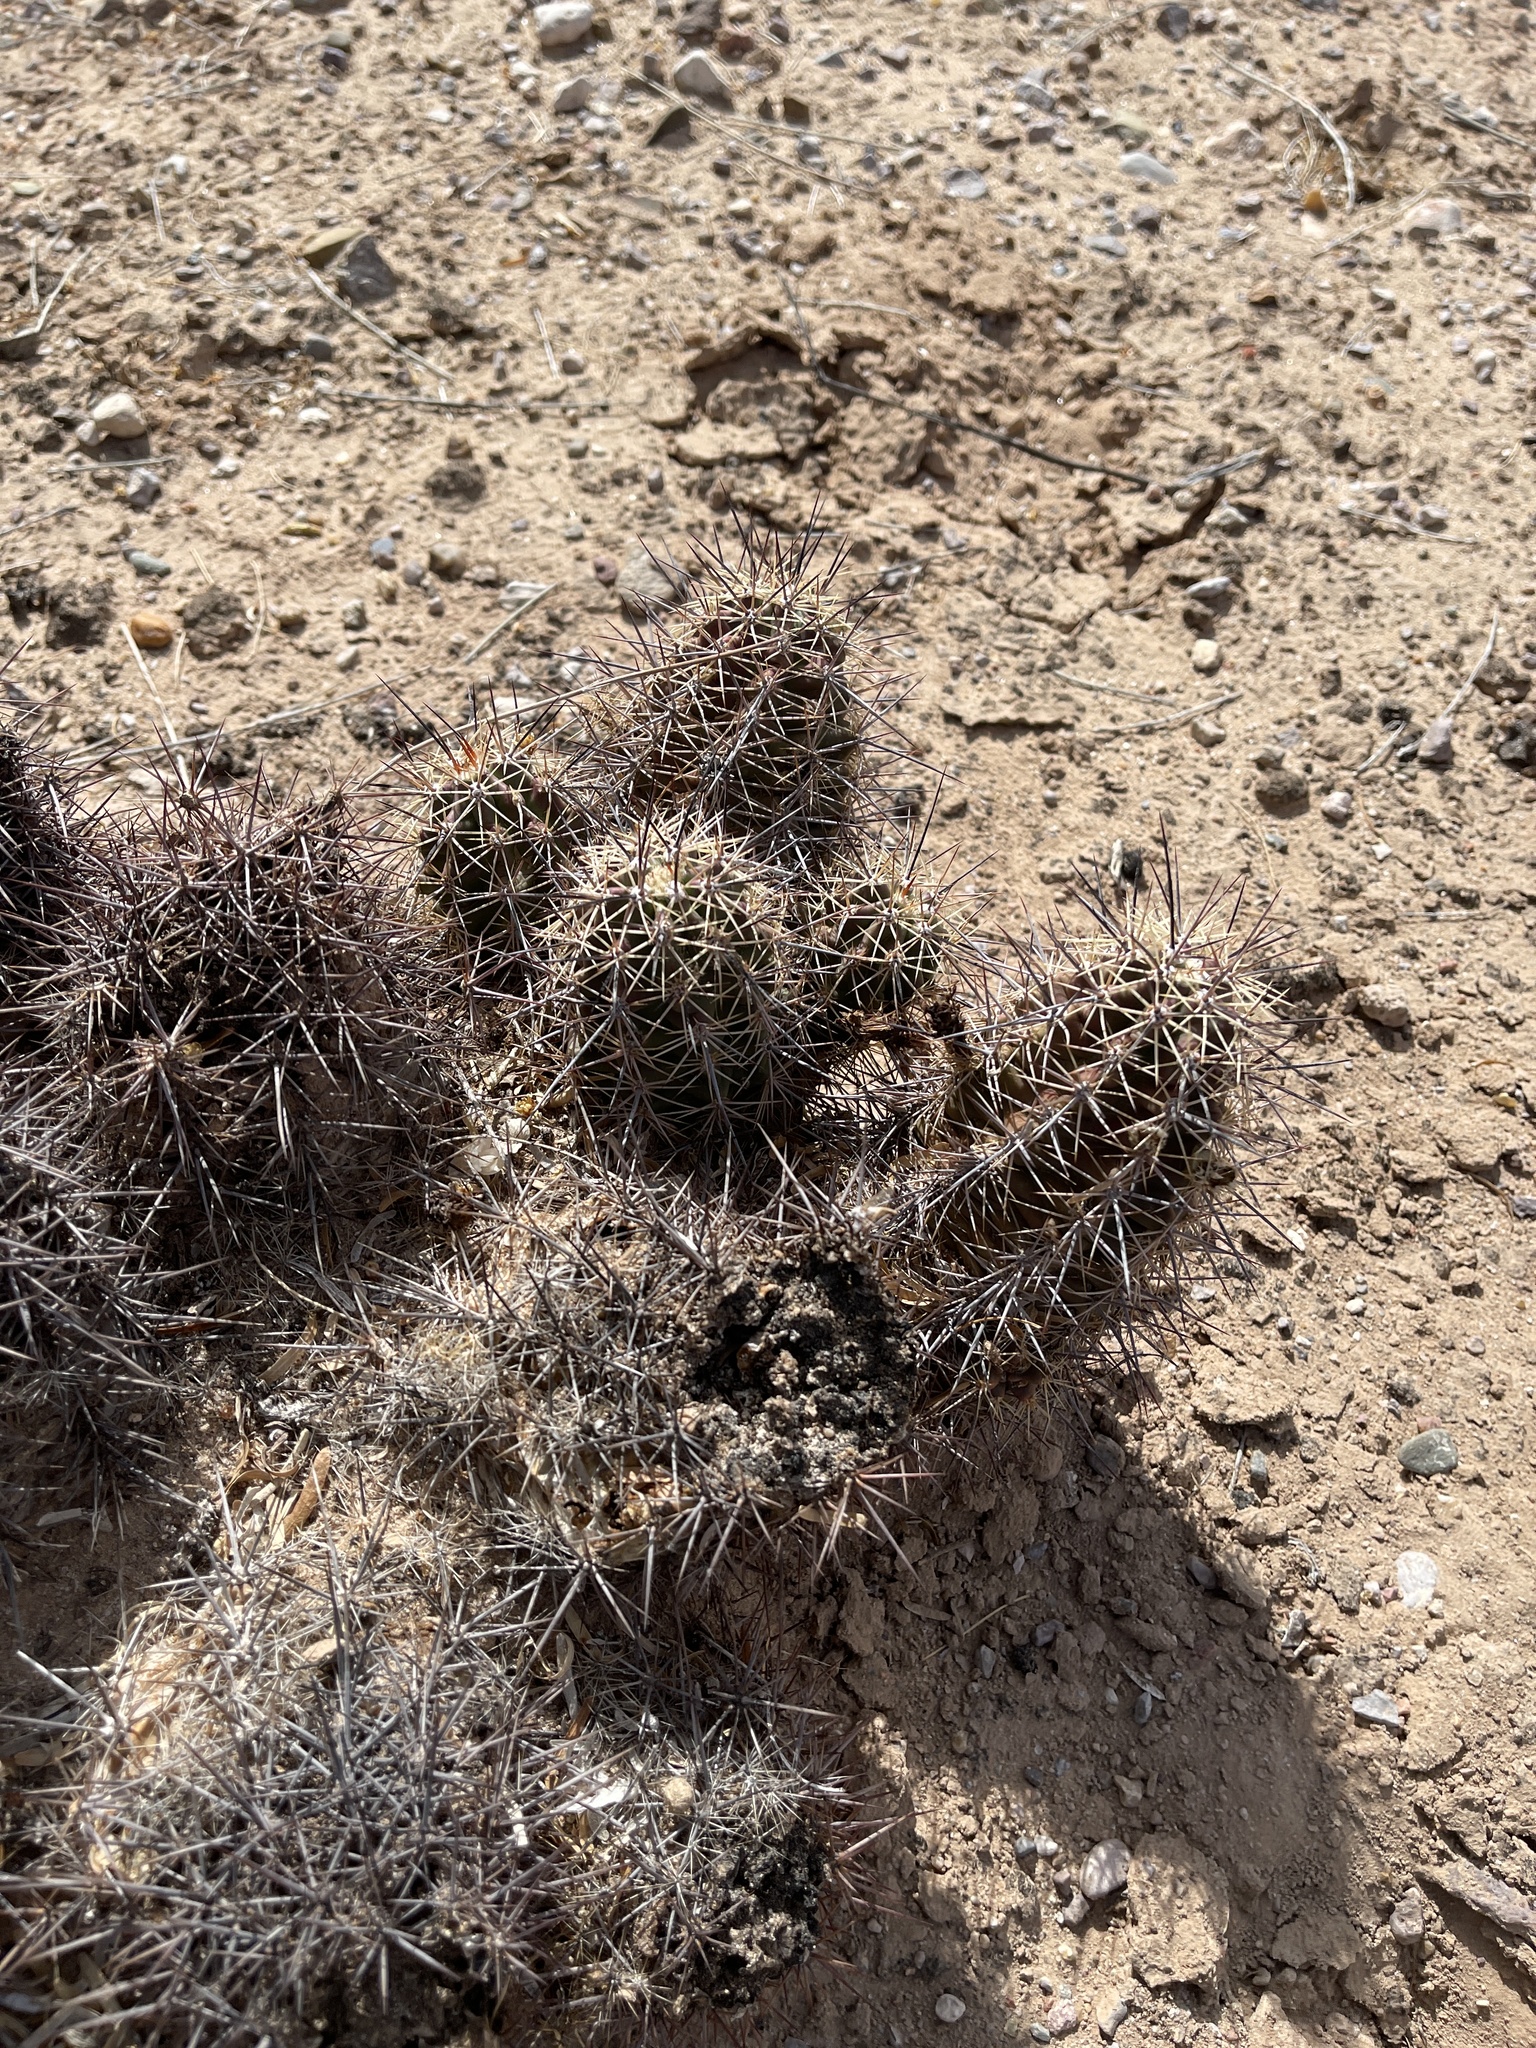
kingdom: Plantae
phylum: Tracheophyta
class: Magnoliopsida
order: Caryophyllales
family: Cactaceae
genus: Echinocereus
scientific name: Echinocereus coccineus
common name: Scarlet hedgehog cactus
